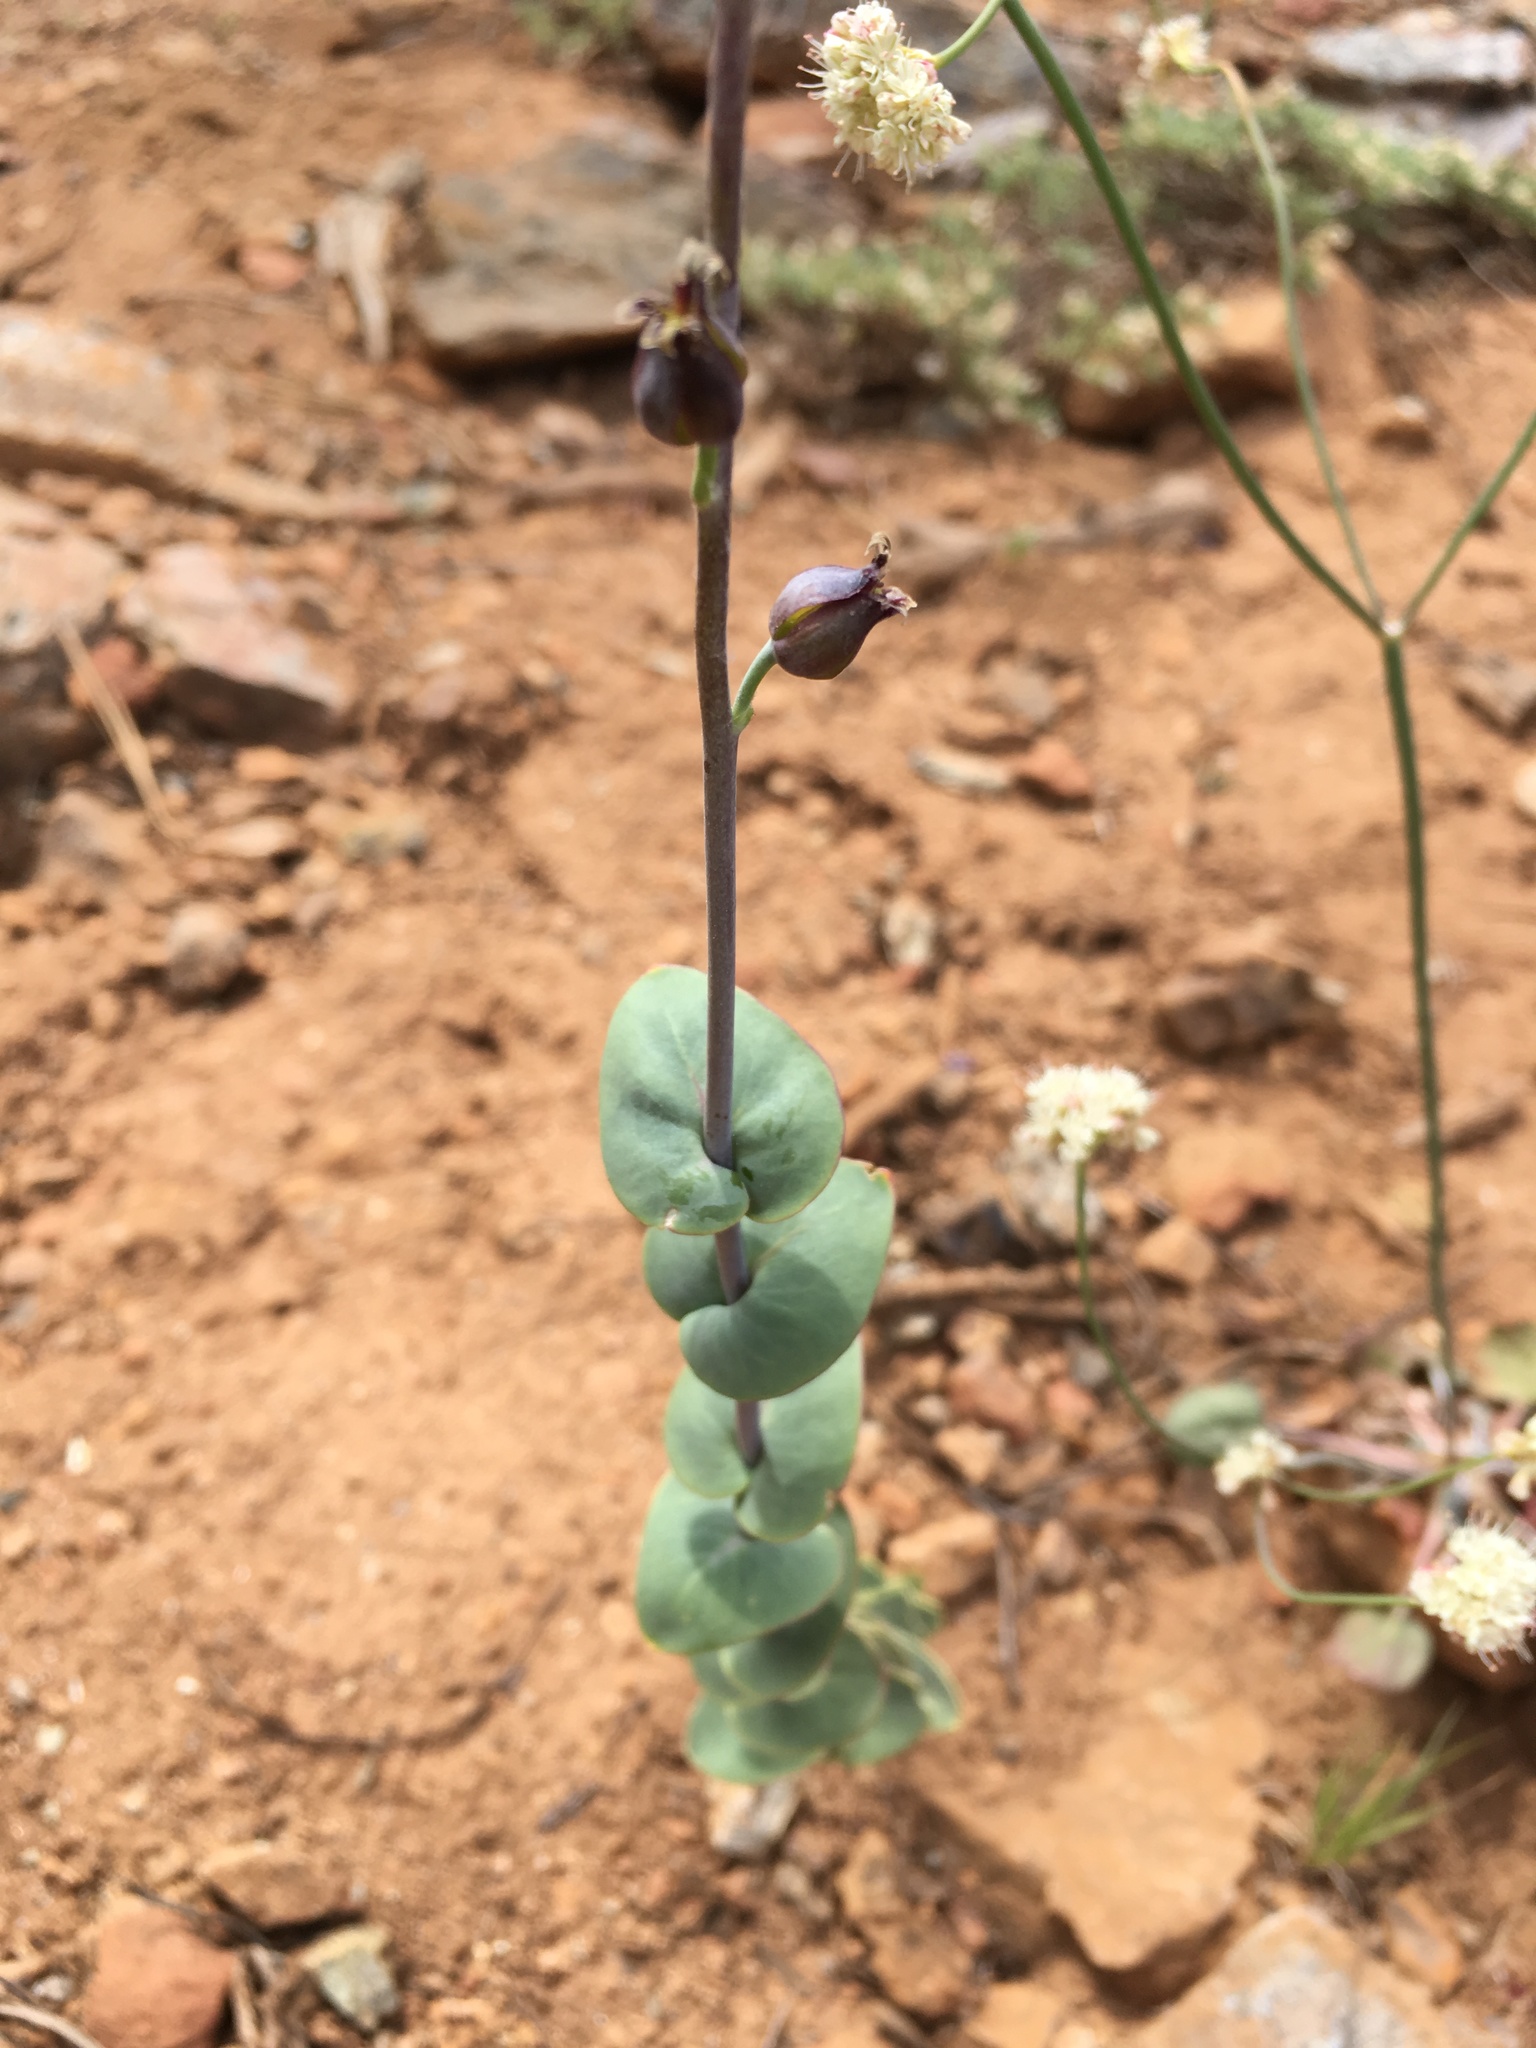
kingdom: Plantae
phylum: Tracheophyta
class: Magnoliopsida
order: Brassicales
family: Brassicaceae
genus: Streptanthus
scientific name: Streptanthus barbatus
